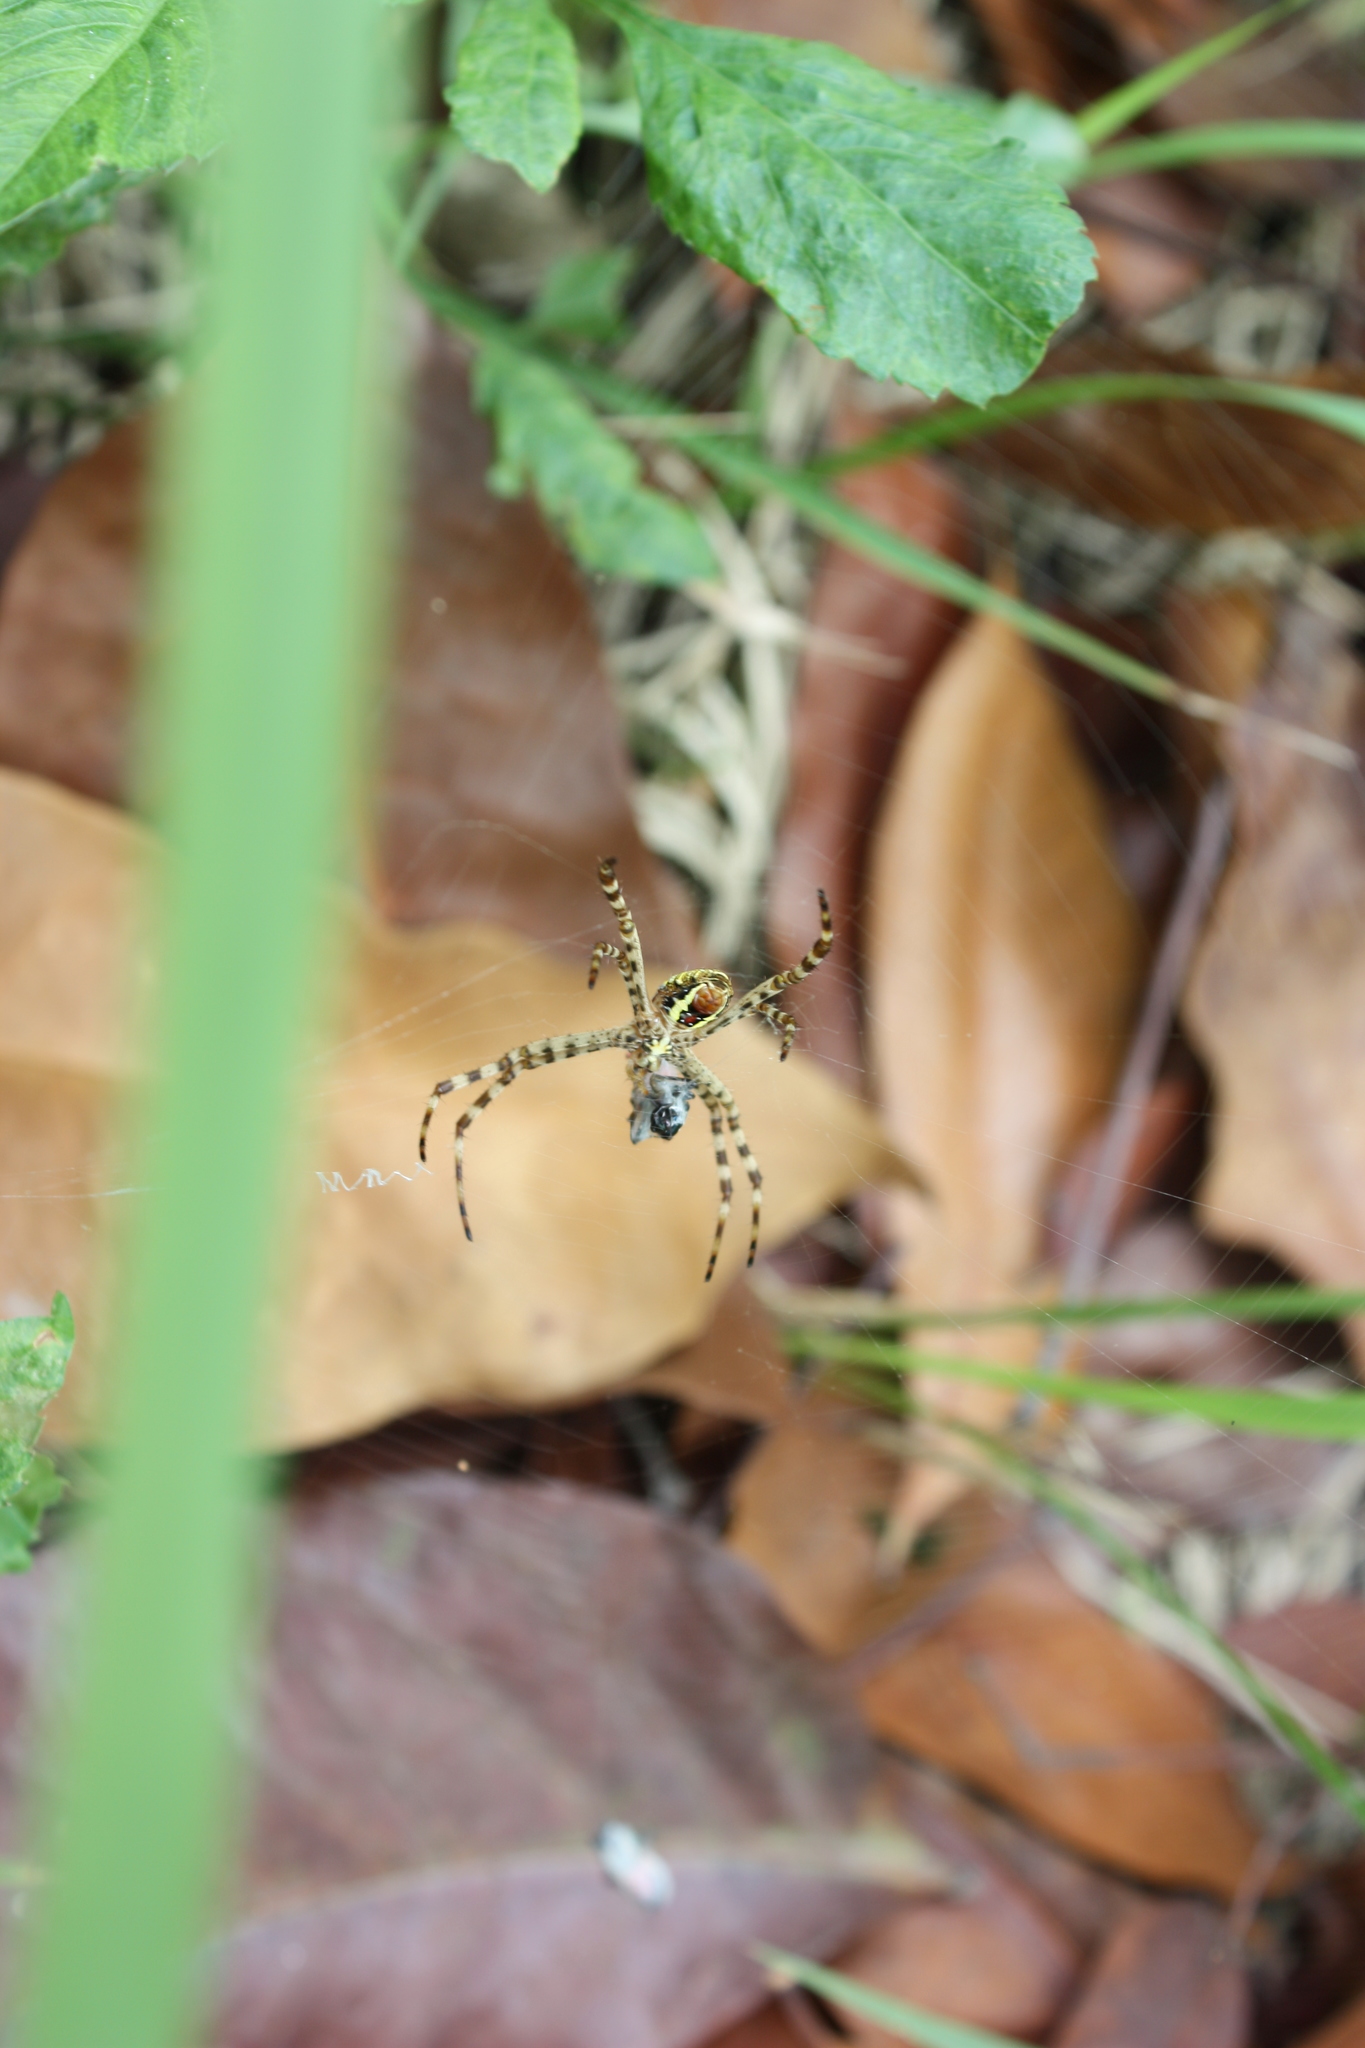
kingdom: Animalia
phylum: Arthropoda
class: Arachnida
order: Araneae
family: Araneidae
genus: Argiope
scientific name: Argiope aemula
